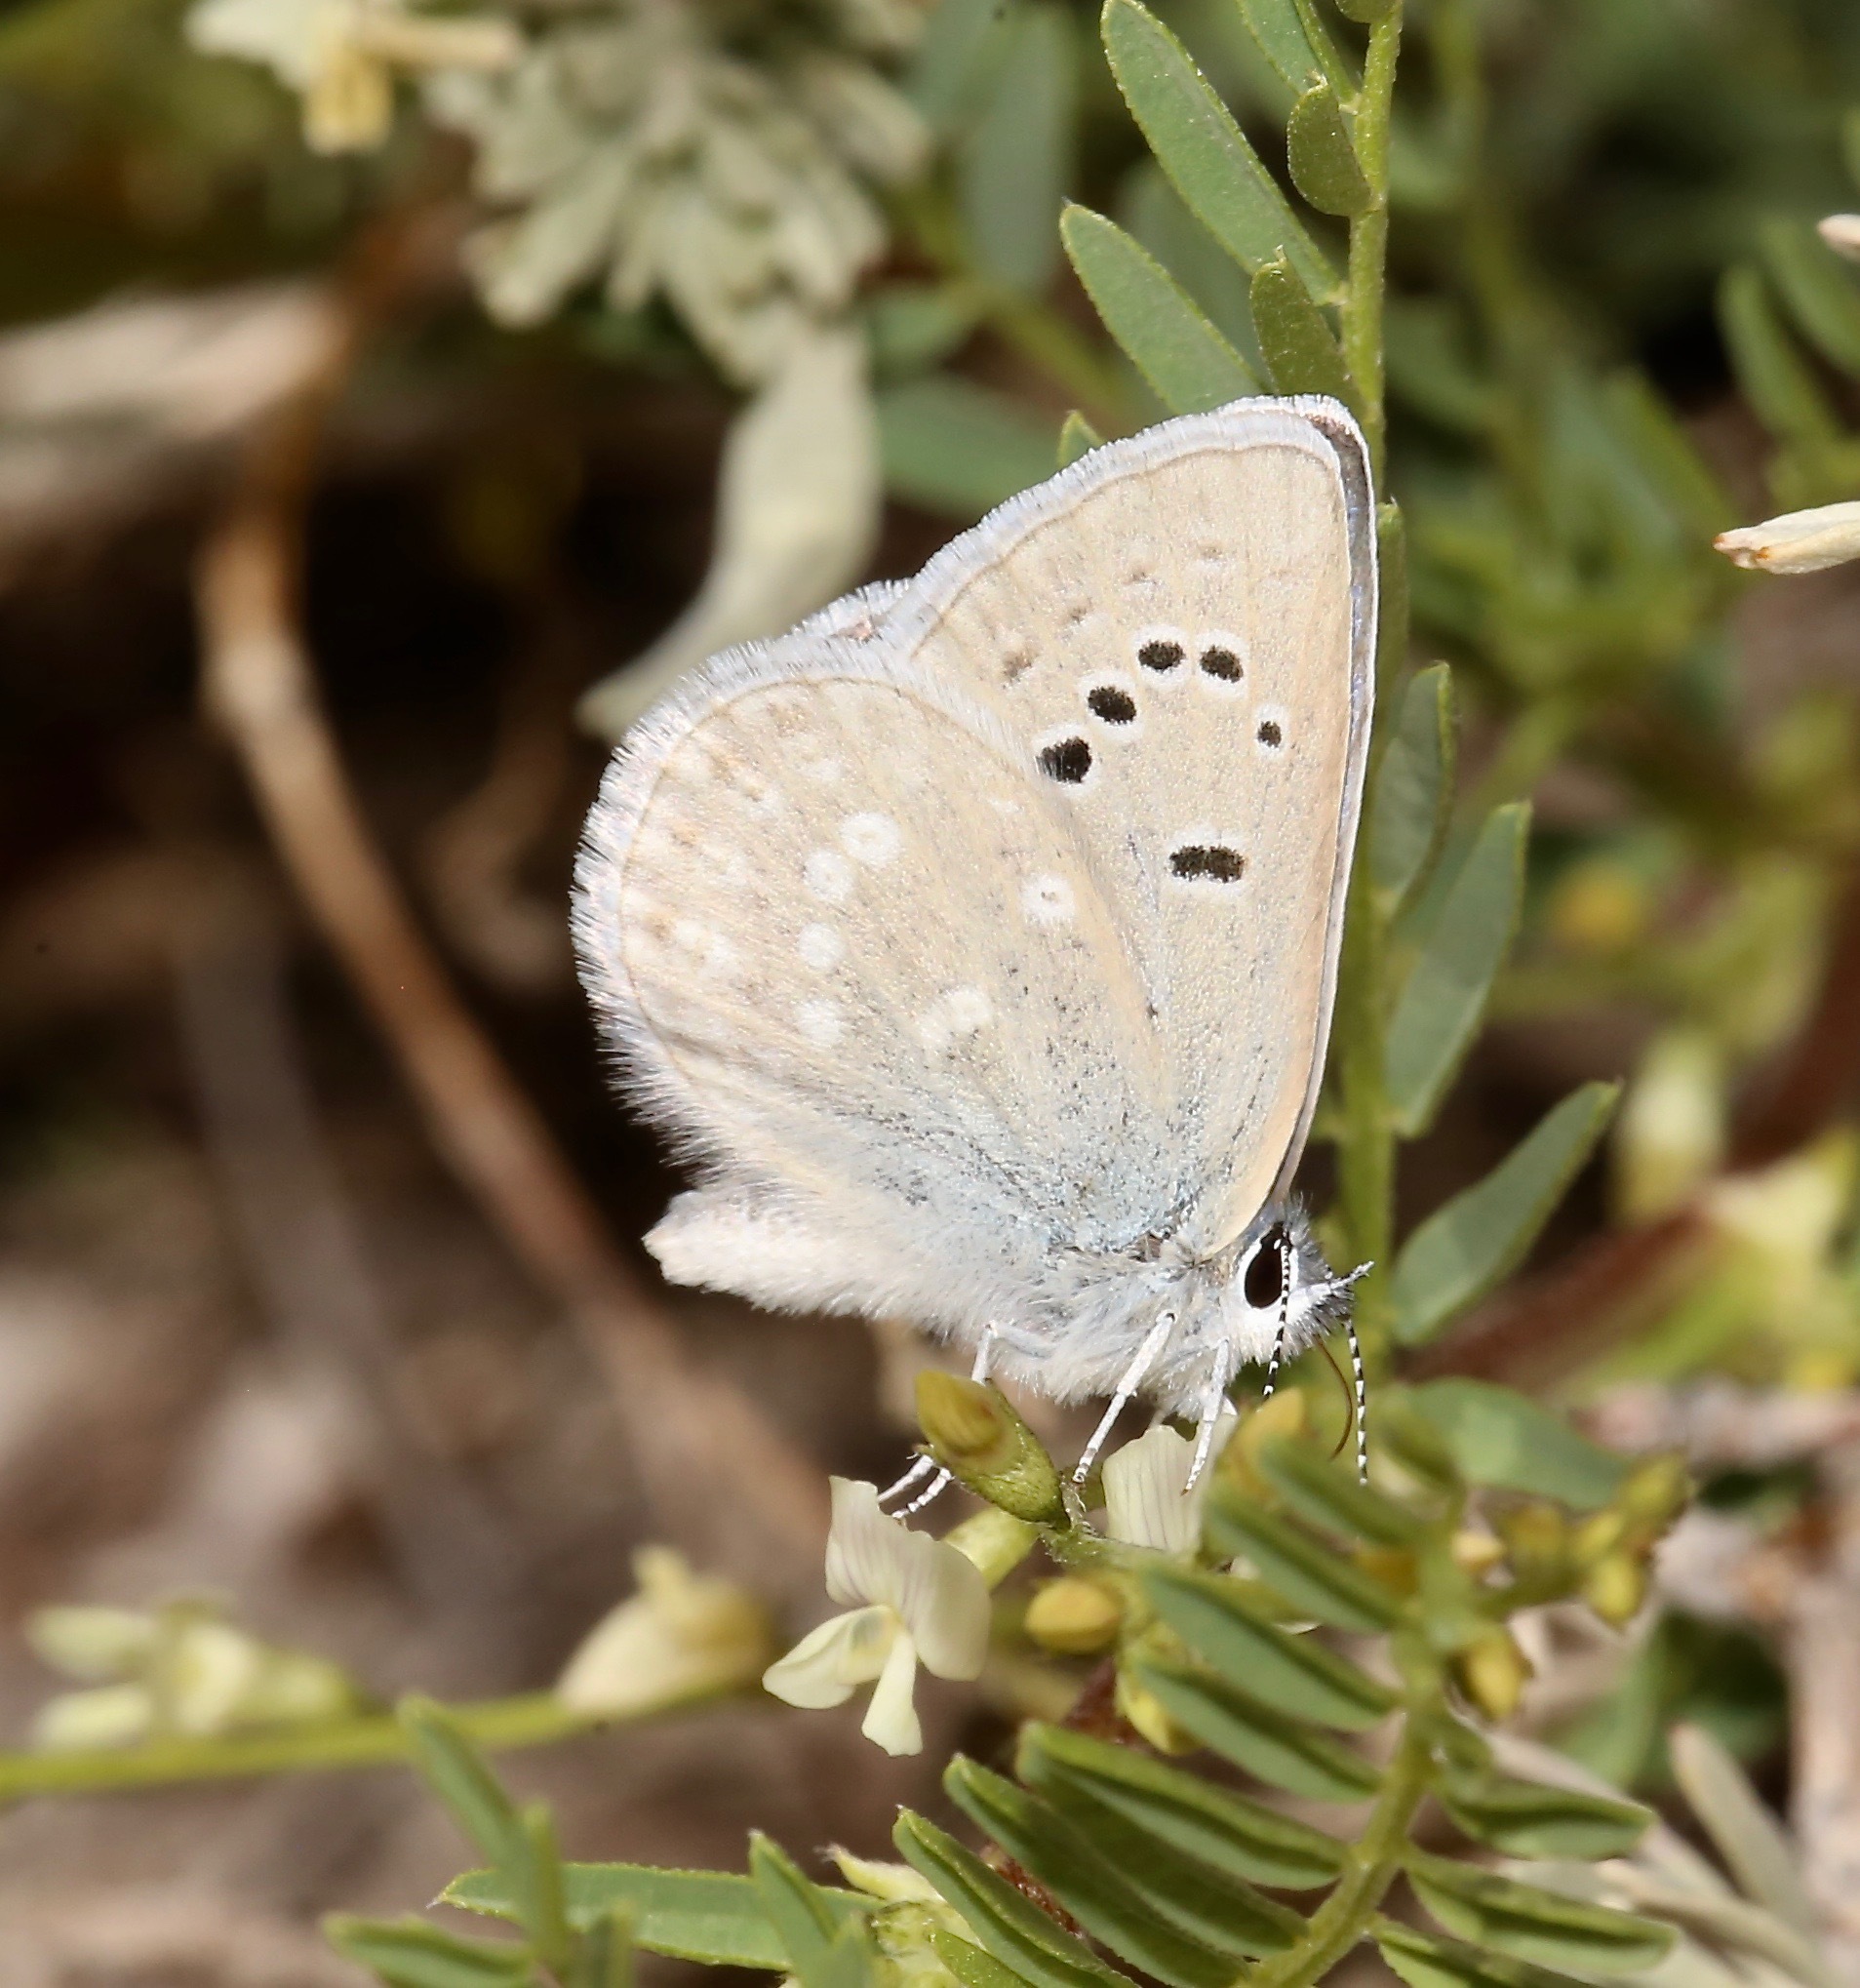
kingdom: Animalia
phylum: Arthropoda
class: Insecta
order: Lepidoptera
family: Lycaenidae
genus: Icaricia
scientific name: Icaricia icarioides
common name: Boisduval's blue
